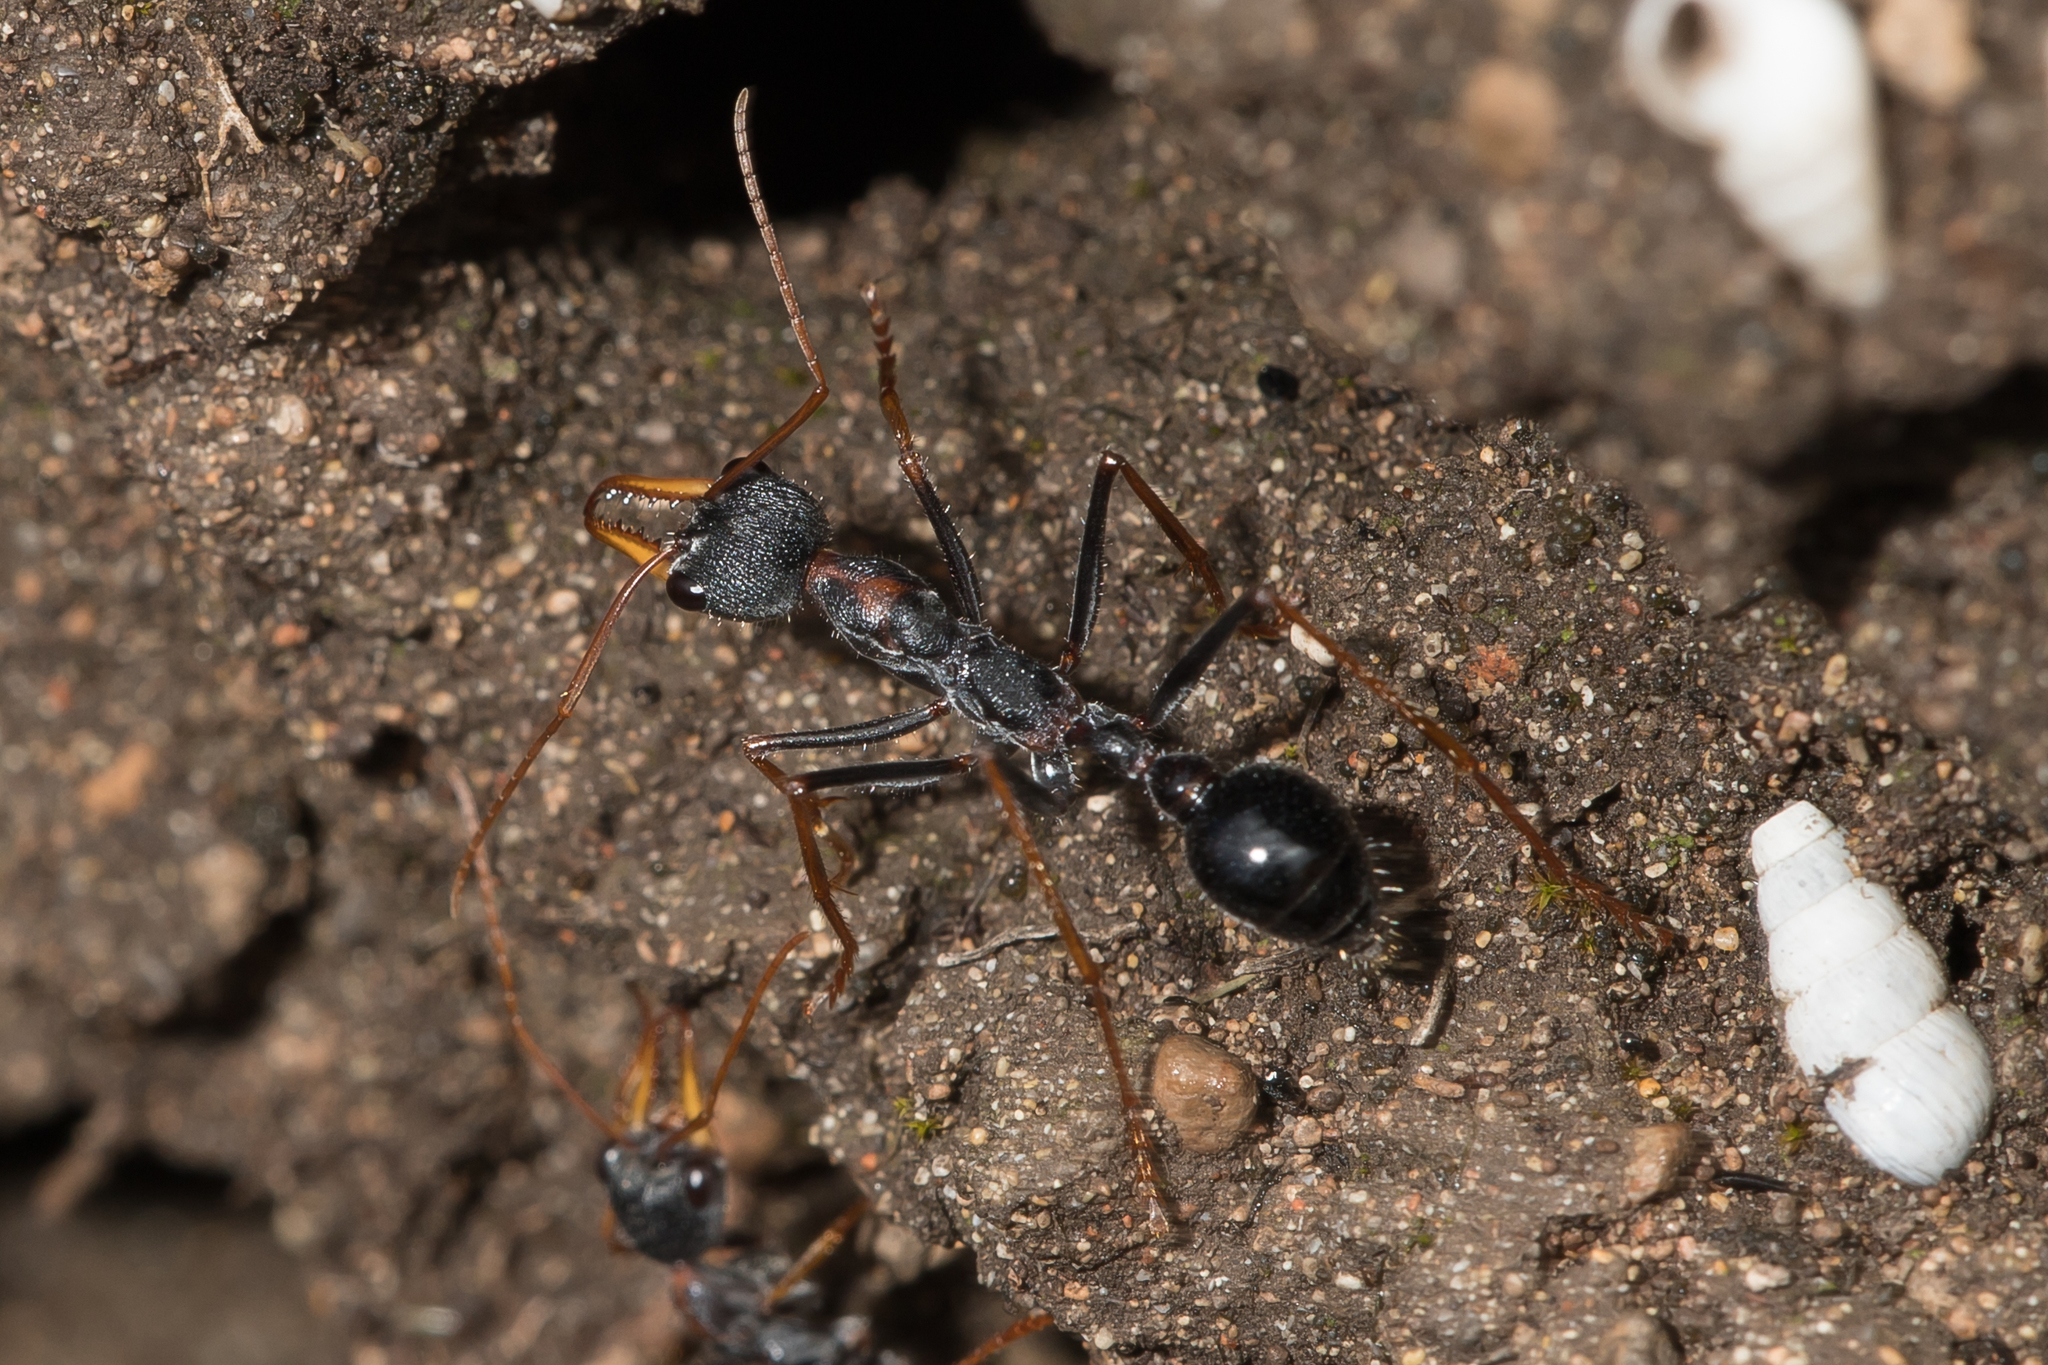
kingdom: Animalia
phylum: Arthropoda
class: Insecta
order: Hymenoptera
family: Formicidae
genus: Myrmecia
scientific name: Myrmecia arnoldi
